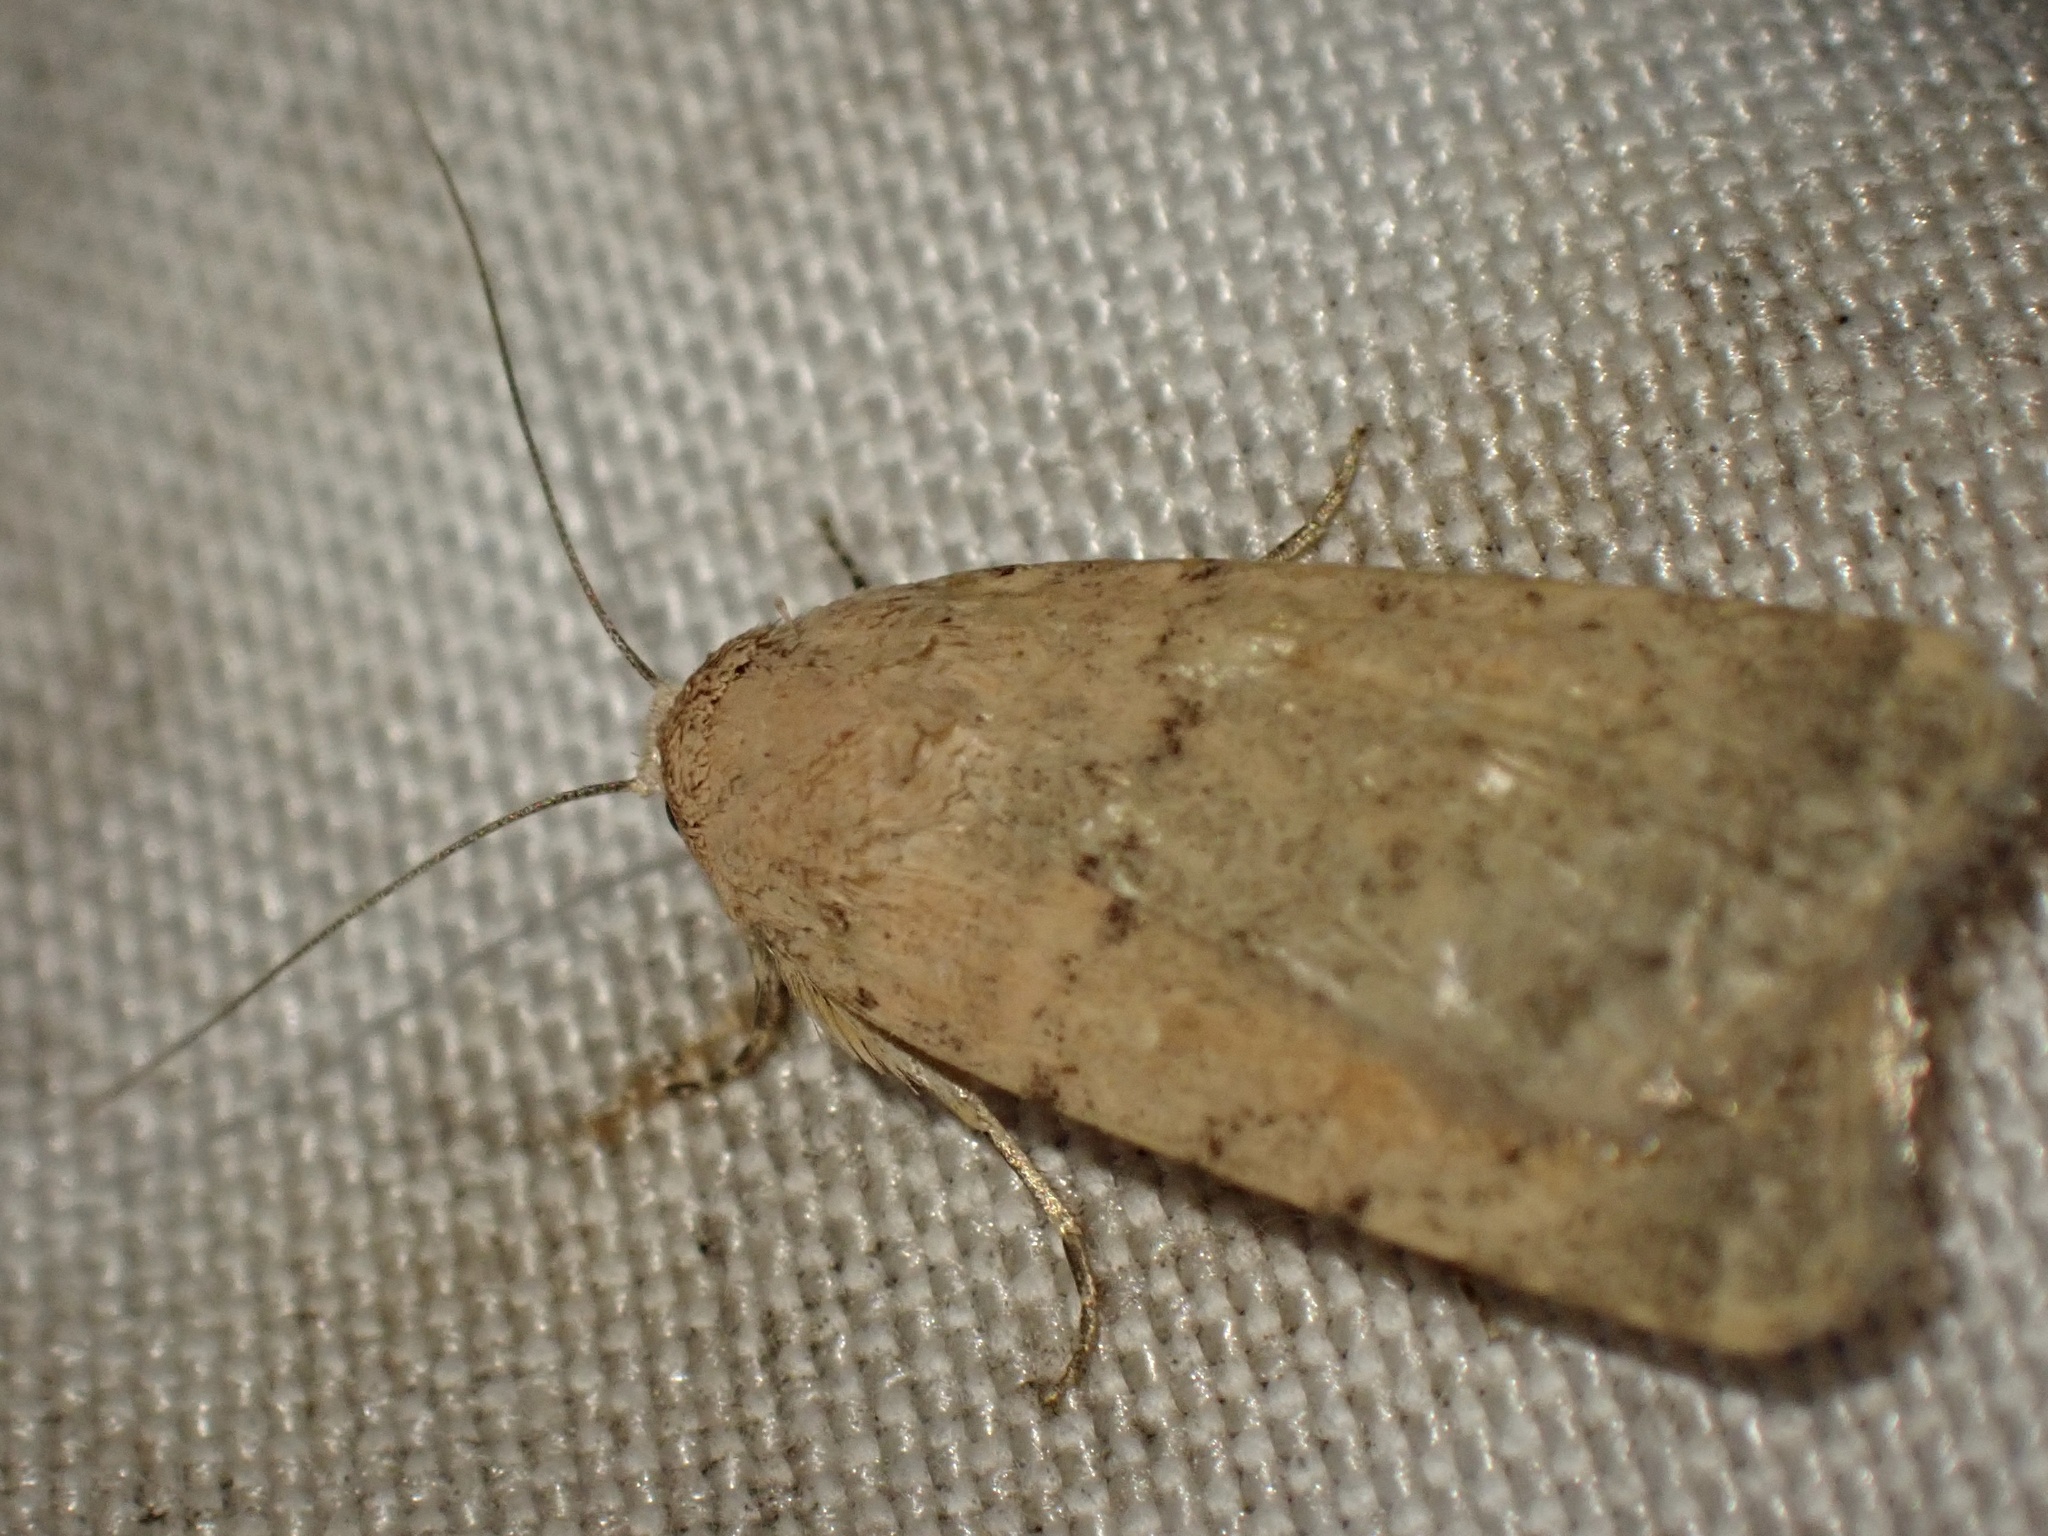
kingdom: Animalia
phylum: Arthropoda
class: Insecta
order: Lepidoptera
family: Noctuidae
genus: Caradrina
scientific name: Caradrina flava
